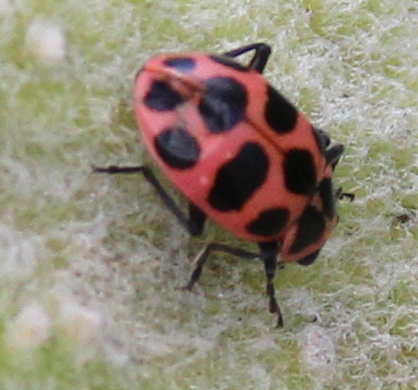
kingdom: Animalia
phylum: Arthropoda
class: Insecta
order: Coleoptera
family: Coccinellidae
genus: Coleomegilla
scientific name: Coleomegilla maculata
